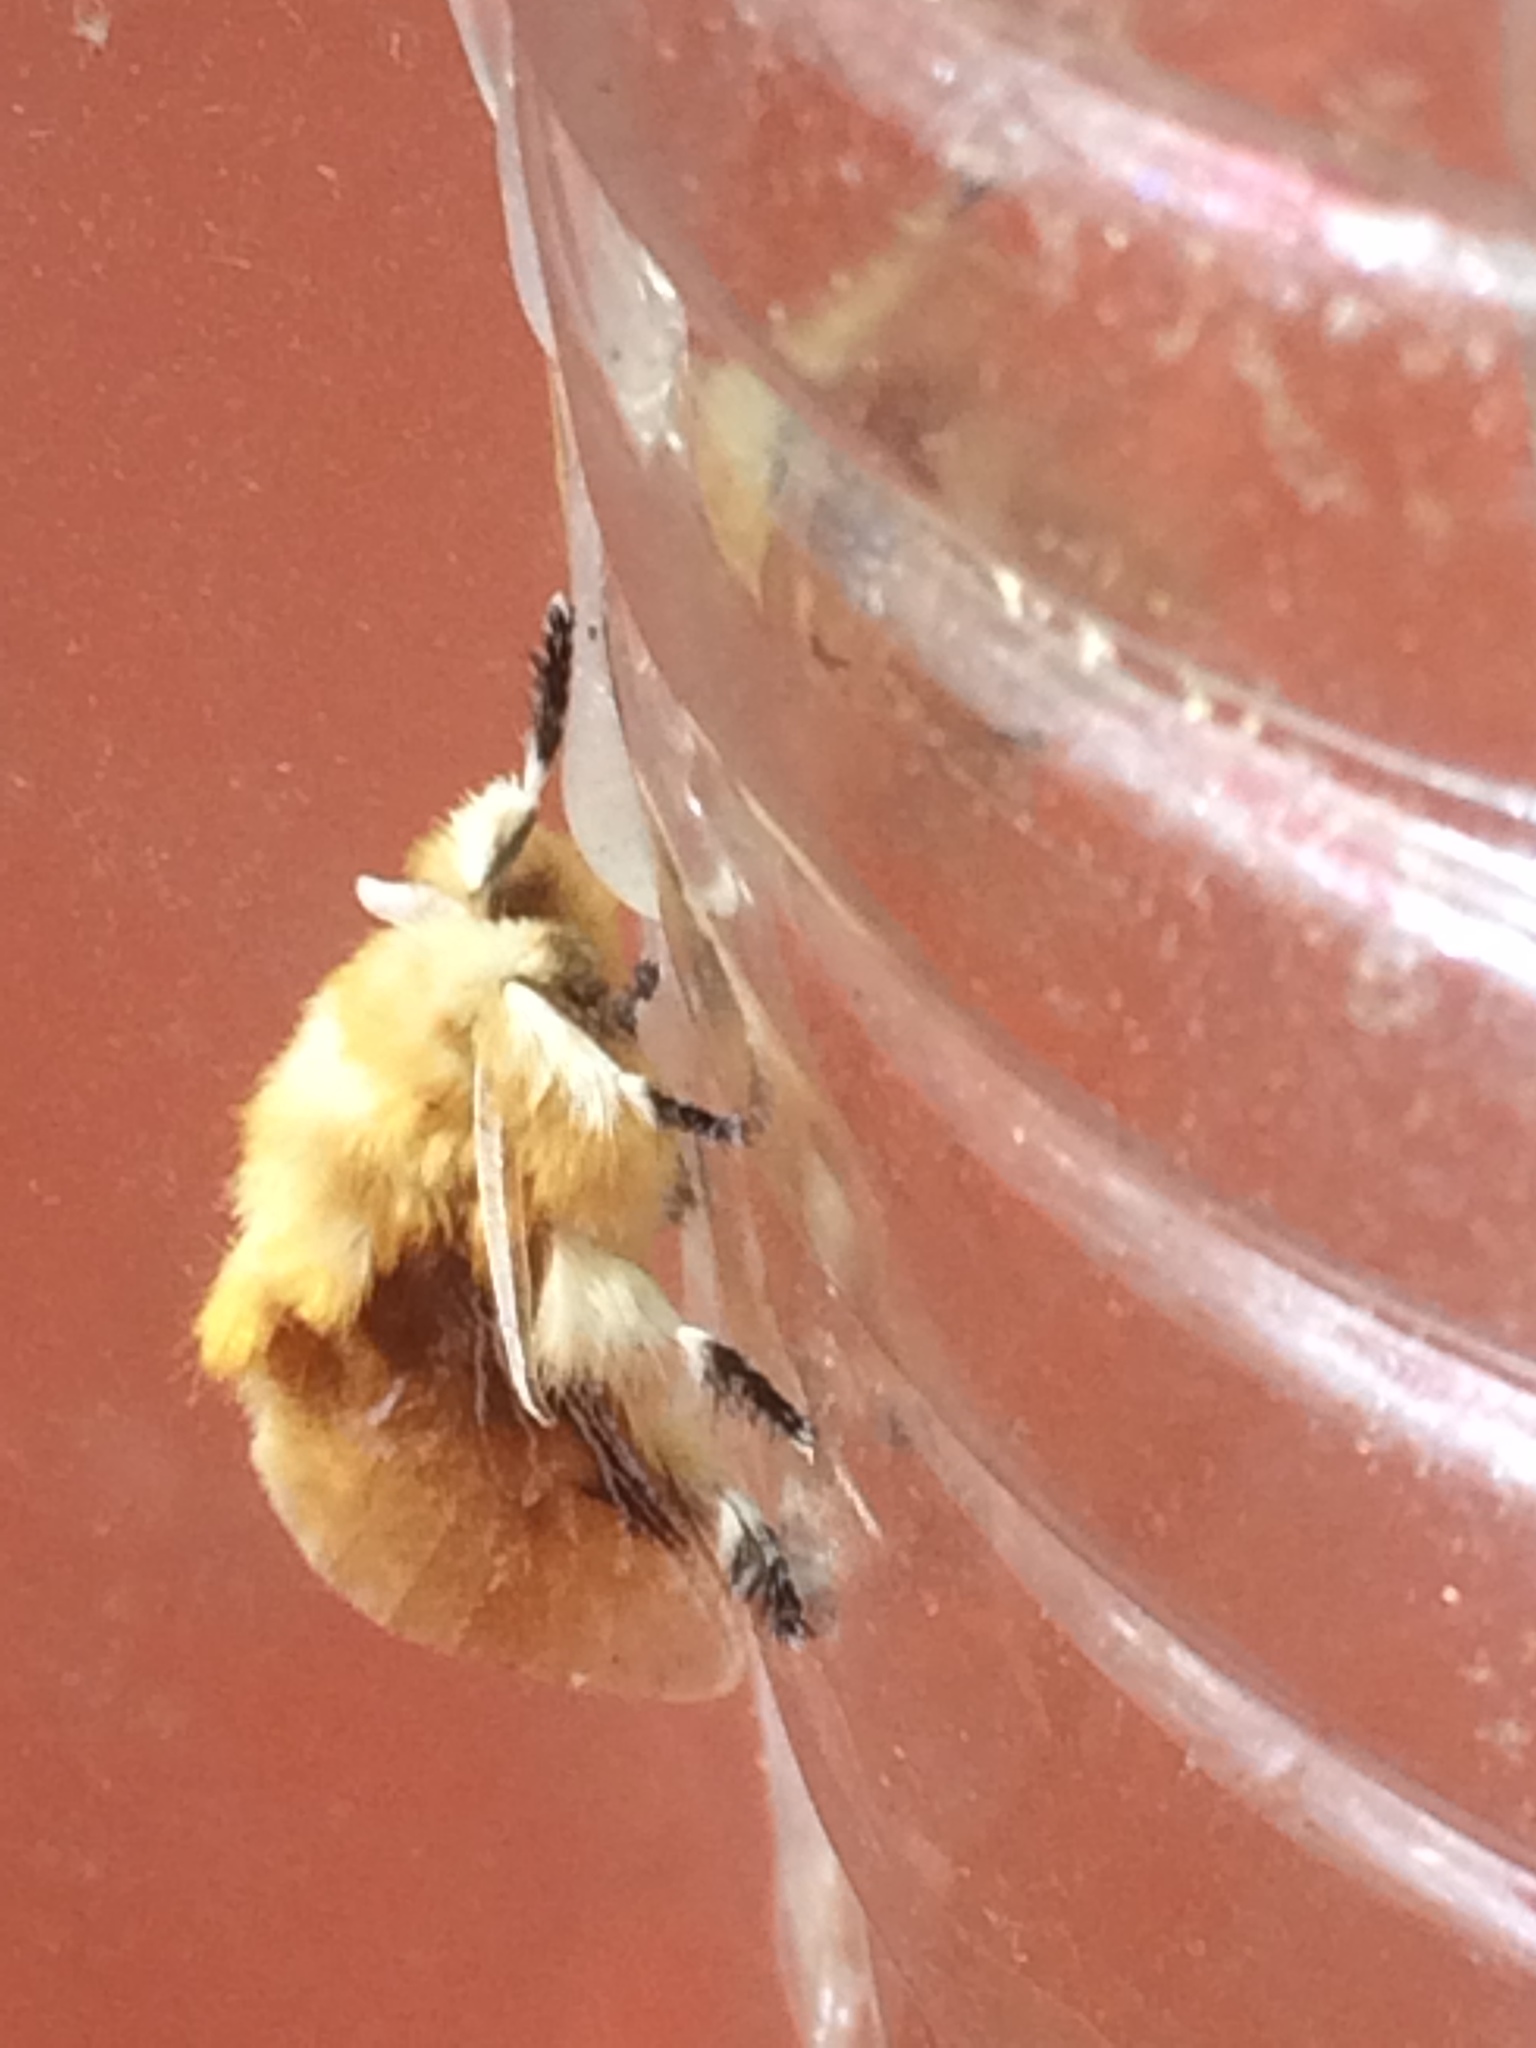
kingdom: Animalia
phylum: Arthropoda
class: Insecta
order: Lepidoptera
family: Megalopygidae
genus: Megalopyge
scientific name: Megalopyge opercularis
